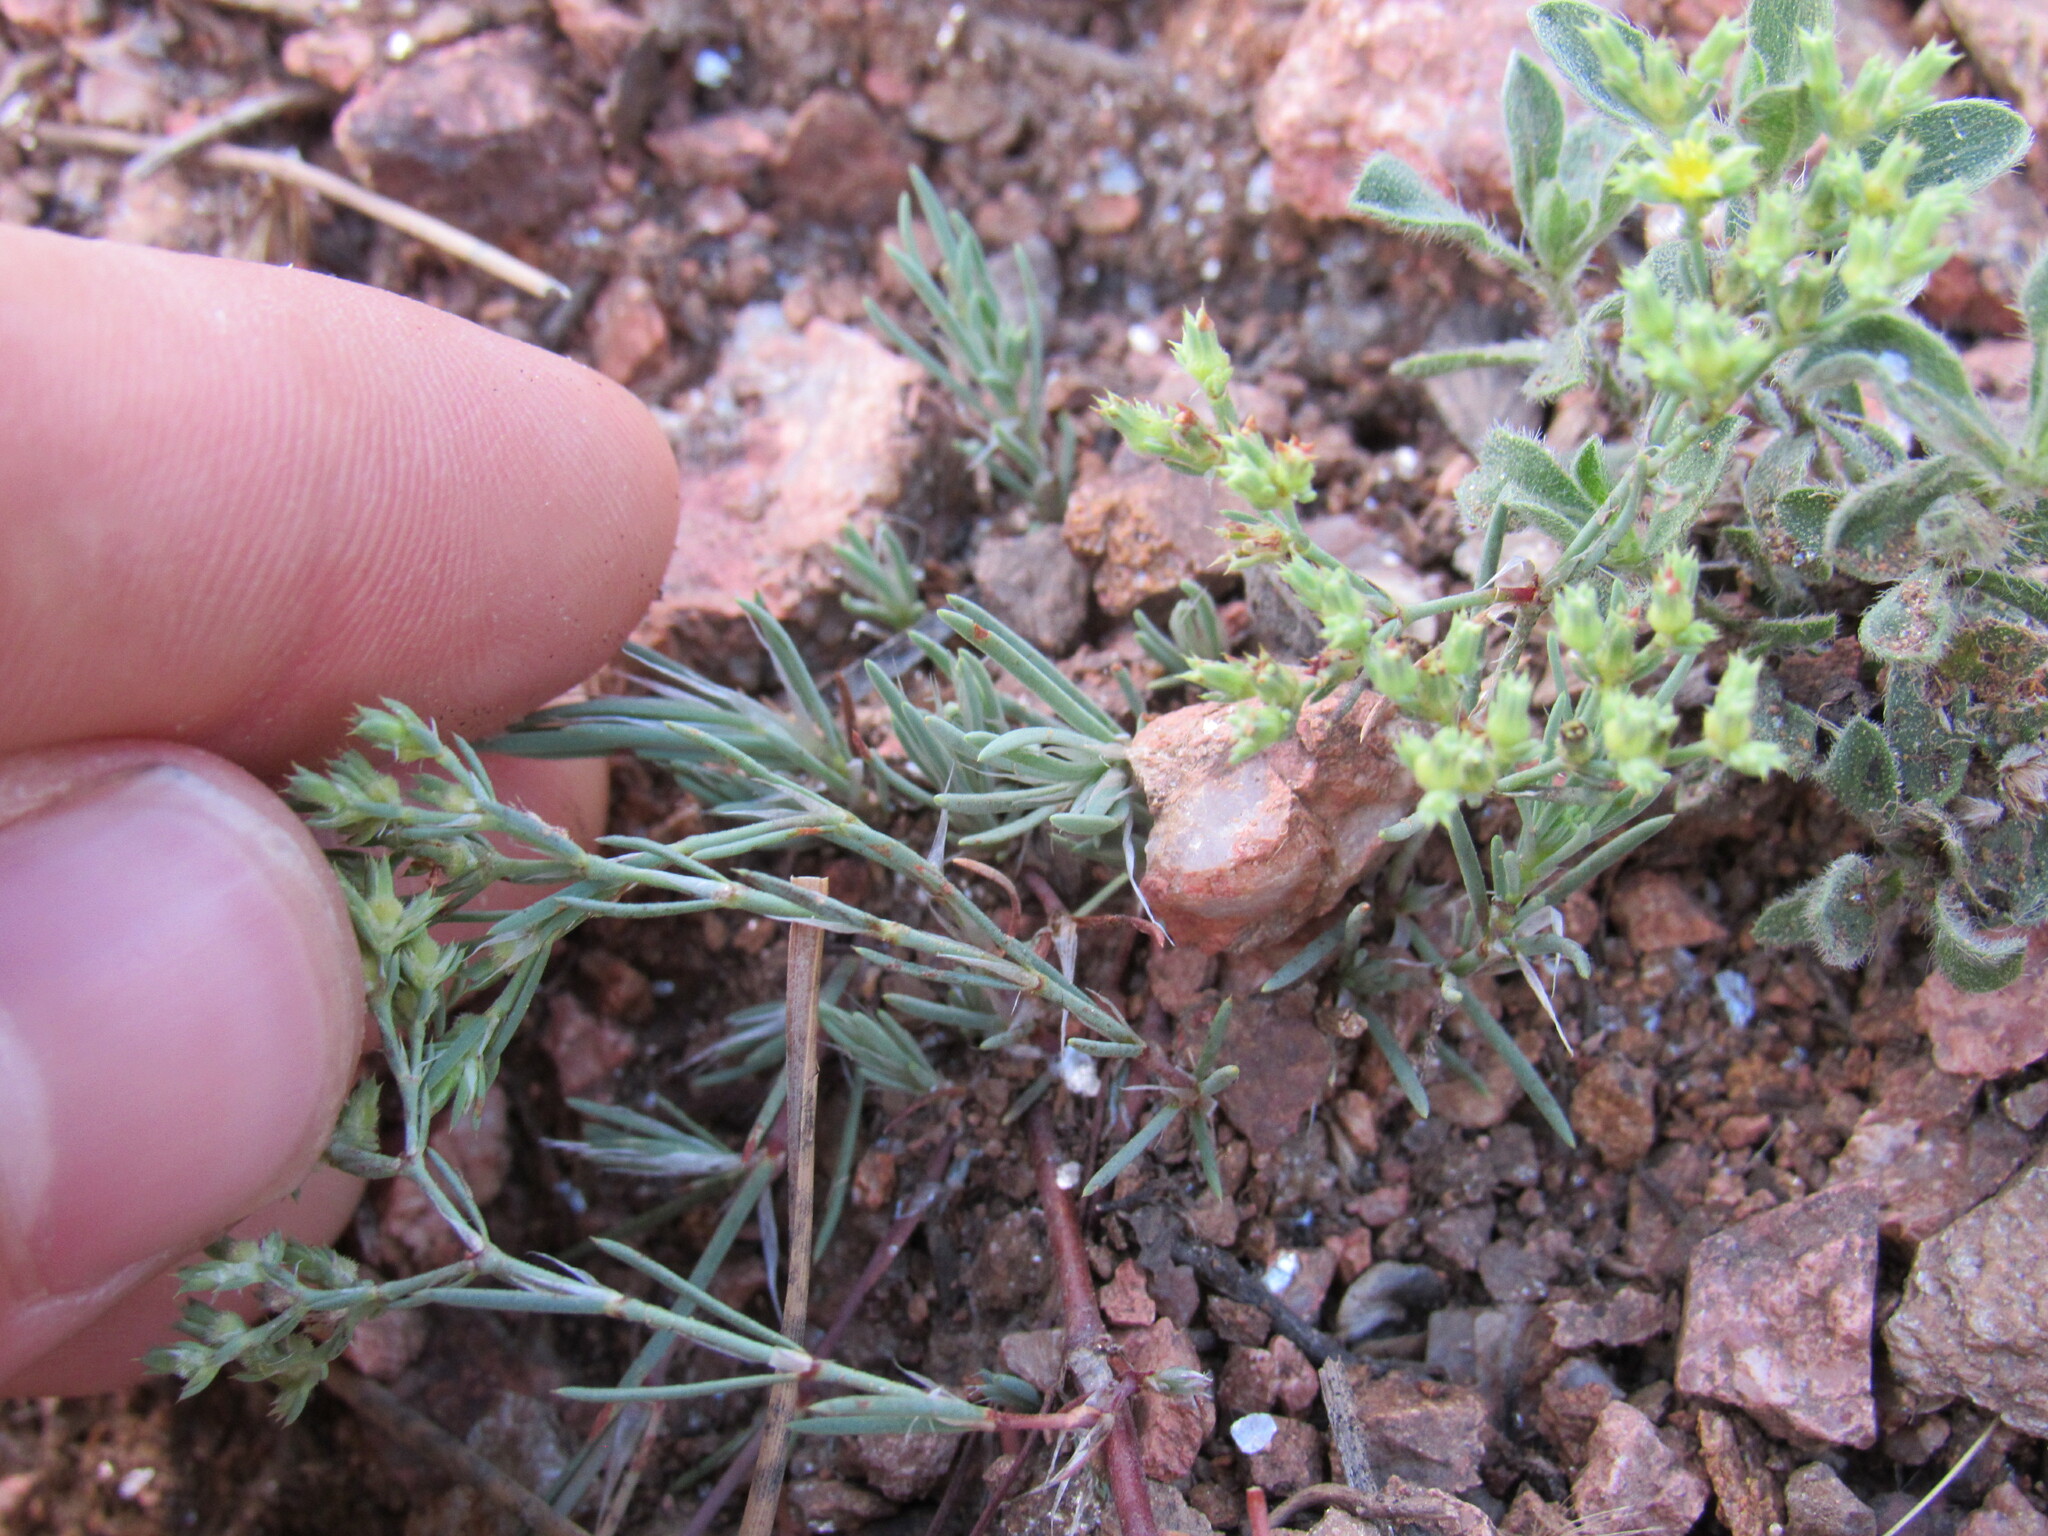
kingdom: Plantae
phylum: Tracheophyta
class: Magnoliopsida
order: Caryophyllales
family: Caryophyllaceae
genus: Paronychia
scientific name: Paronychia jamesii
